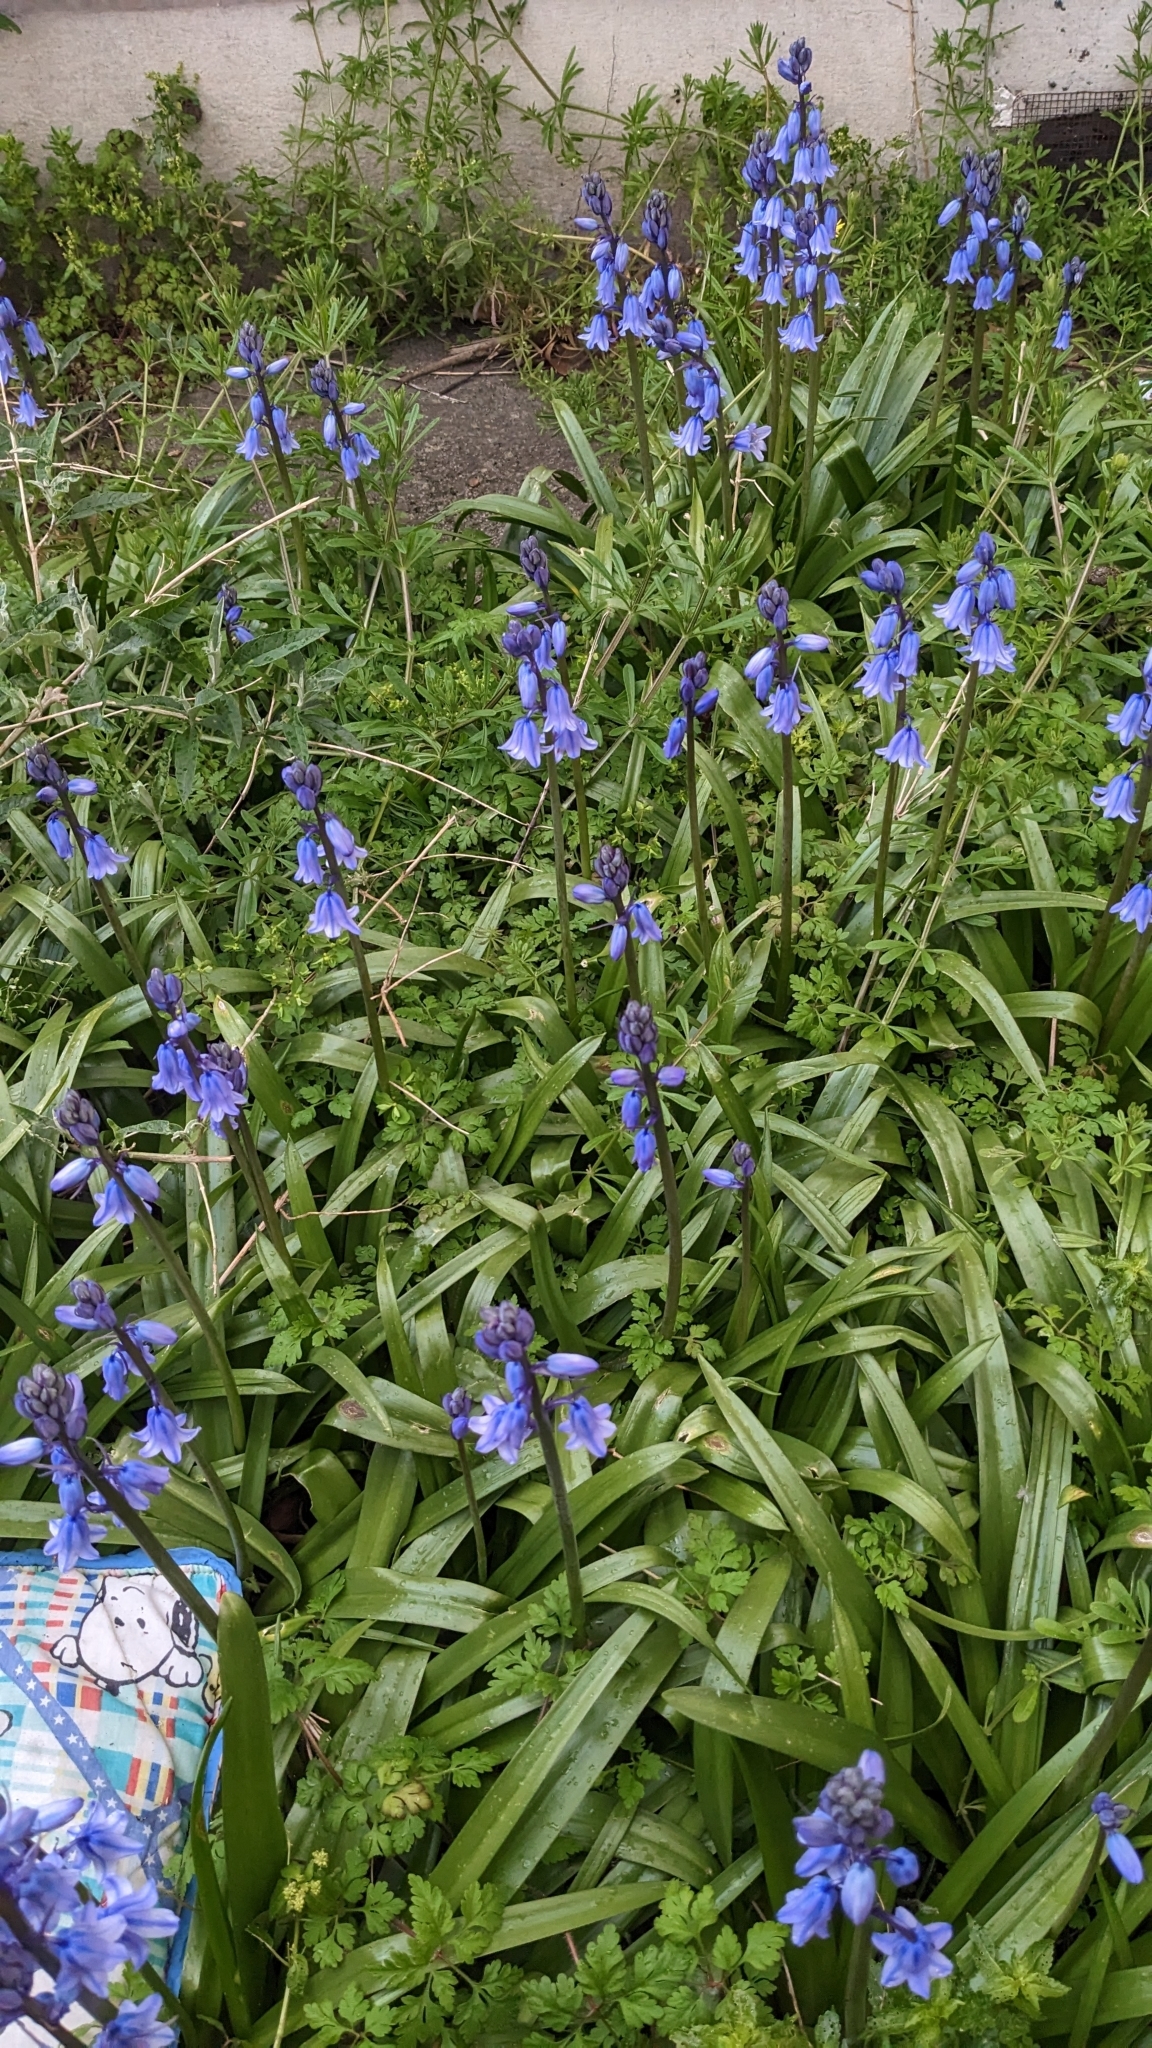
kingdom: Fungi
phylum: Basidiomycota
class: Pucciniomycetes
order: Pucciniales
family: Pucciniaceae
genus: Uromyces
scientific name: Uromyces hyacinthi
